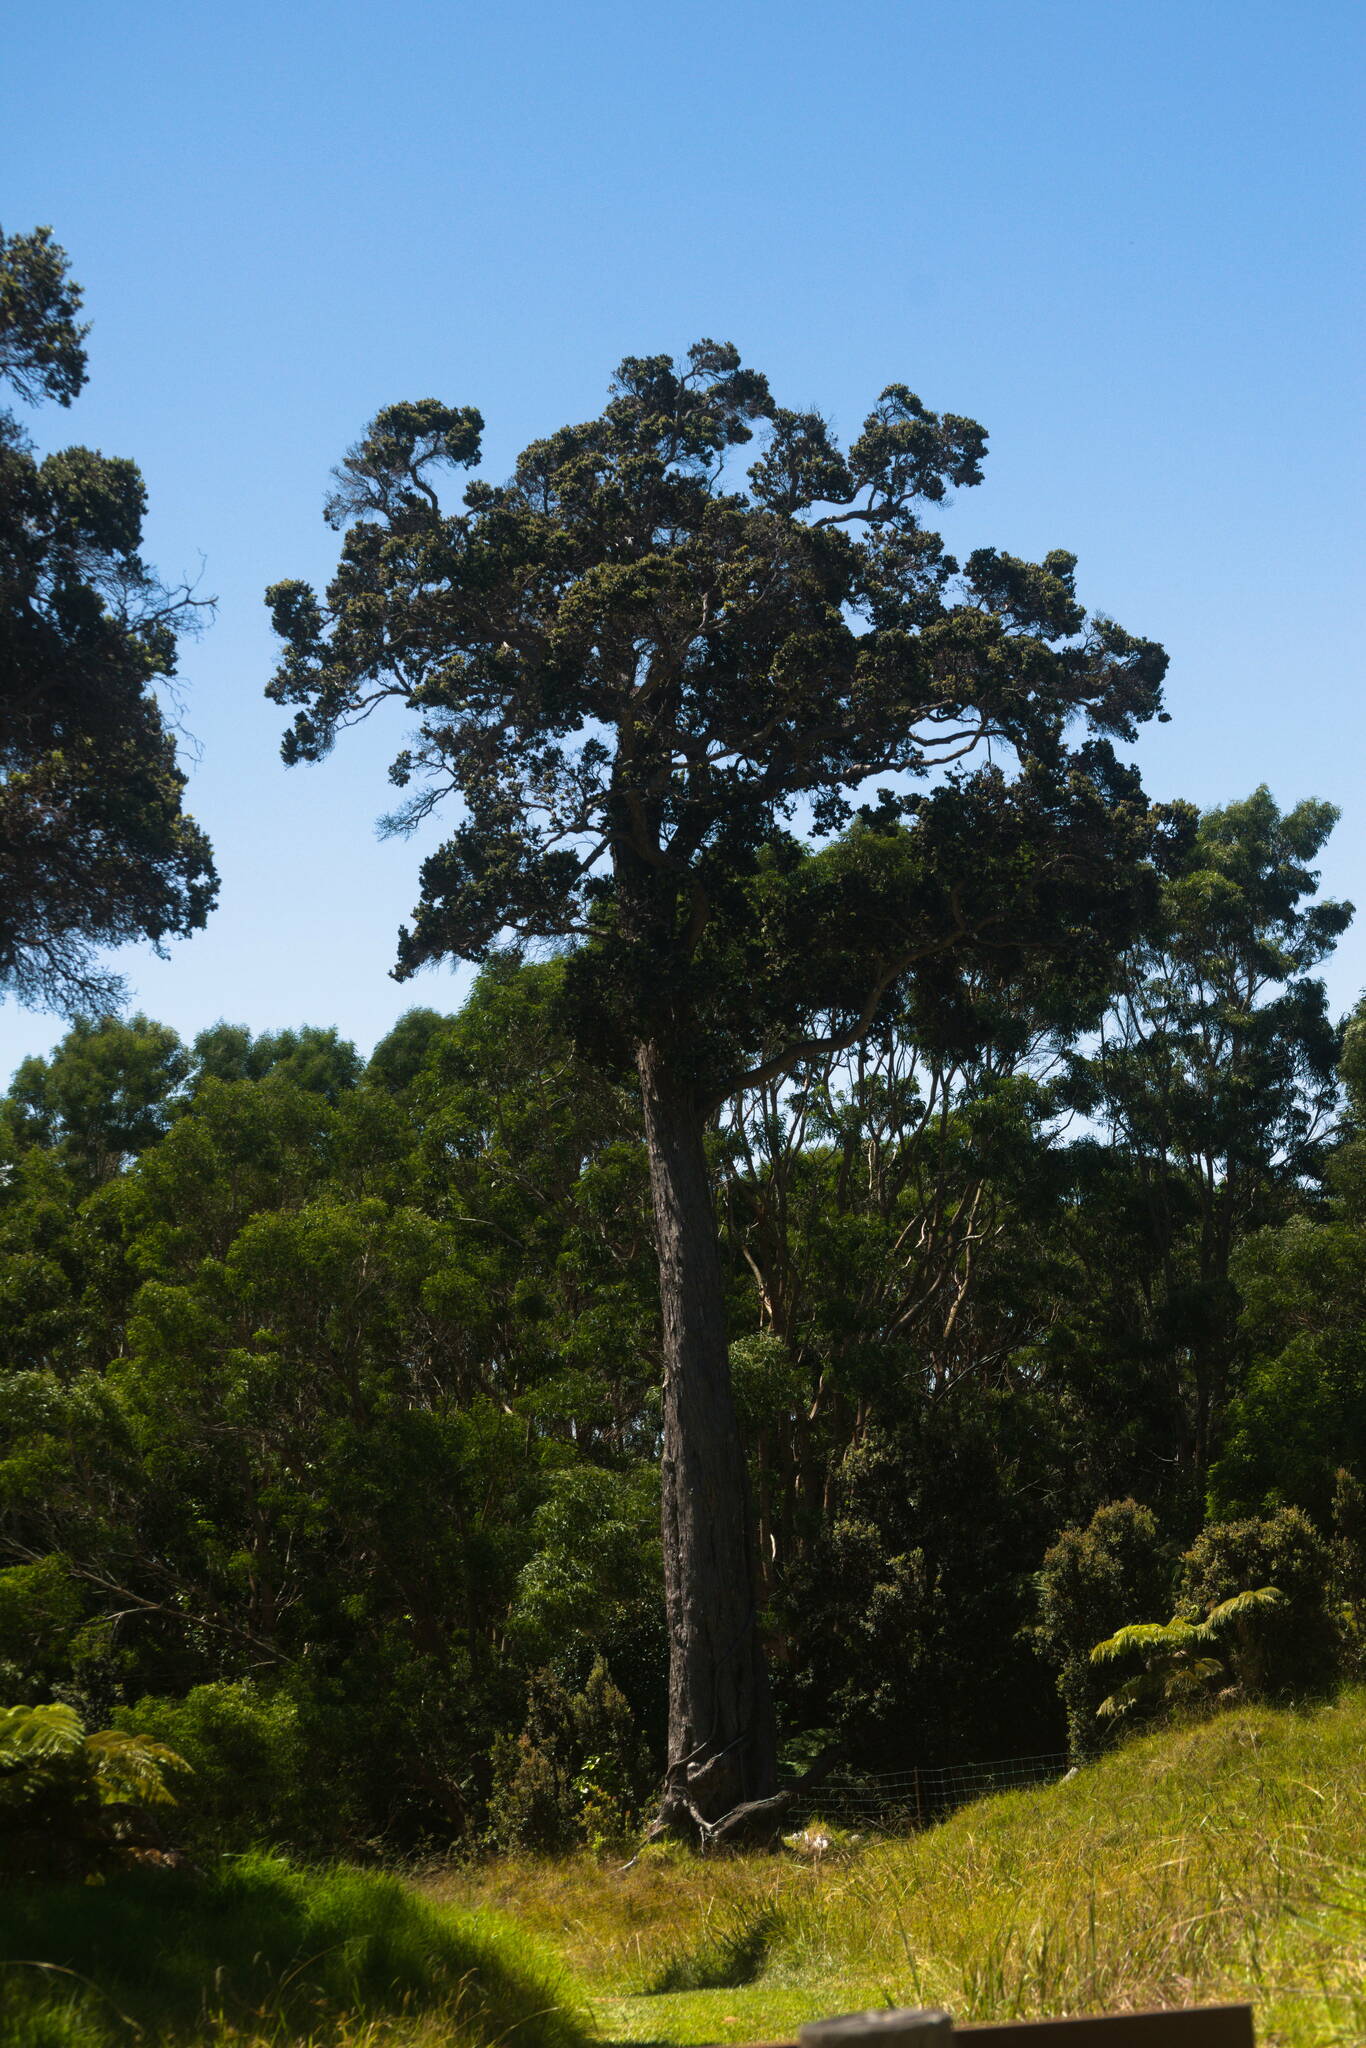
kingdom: Plantae
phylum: Tracheophyta
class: Magnoliopsida
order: Myrtales
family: Myrtaceae
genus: Metrosideros
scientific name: Metrosideros polymorpha
